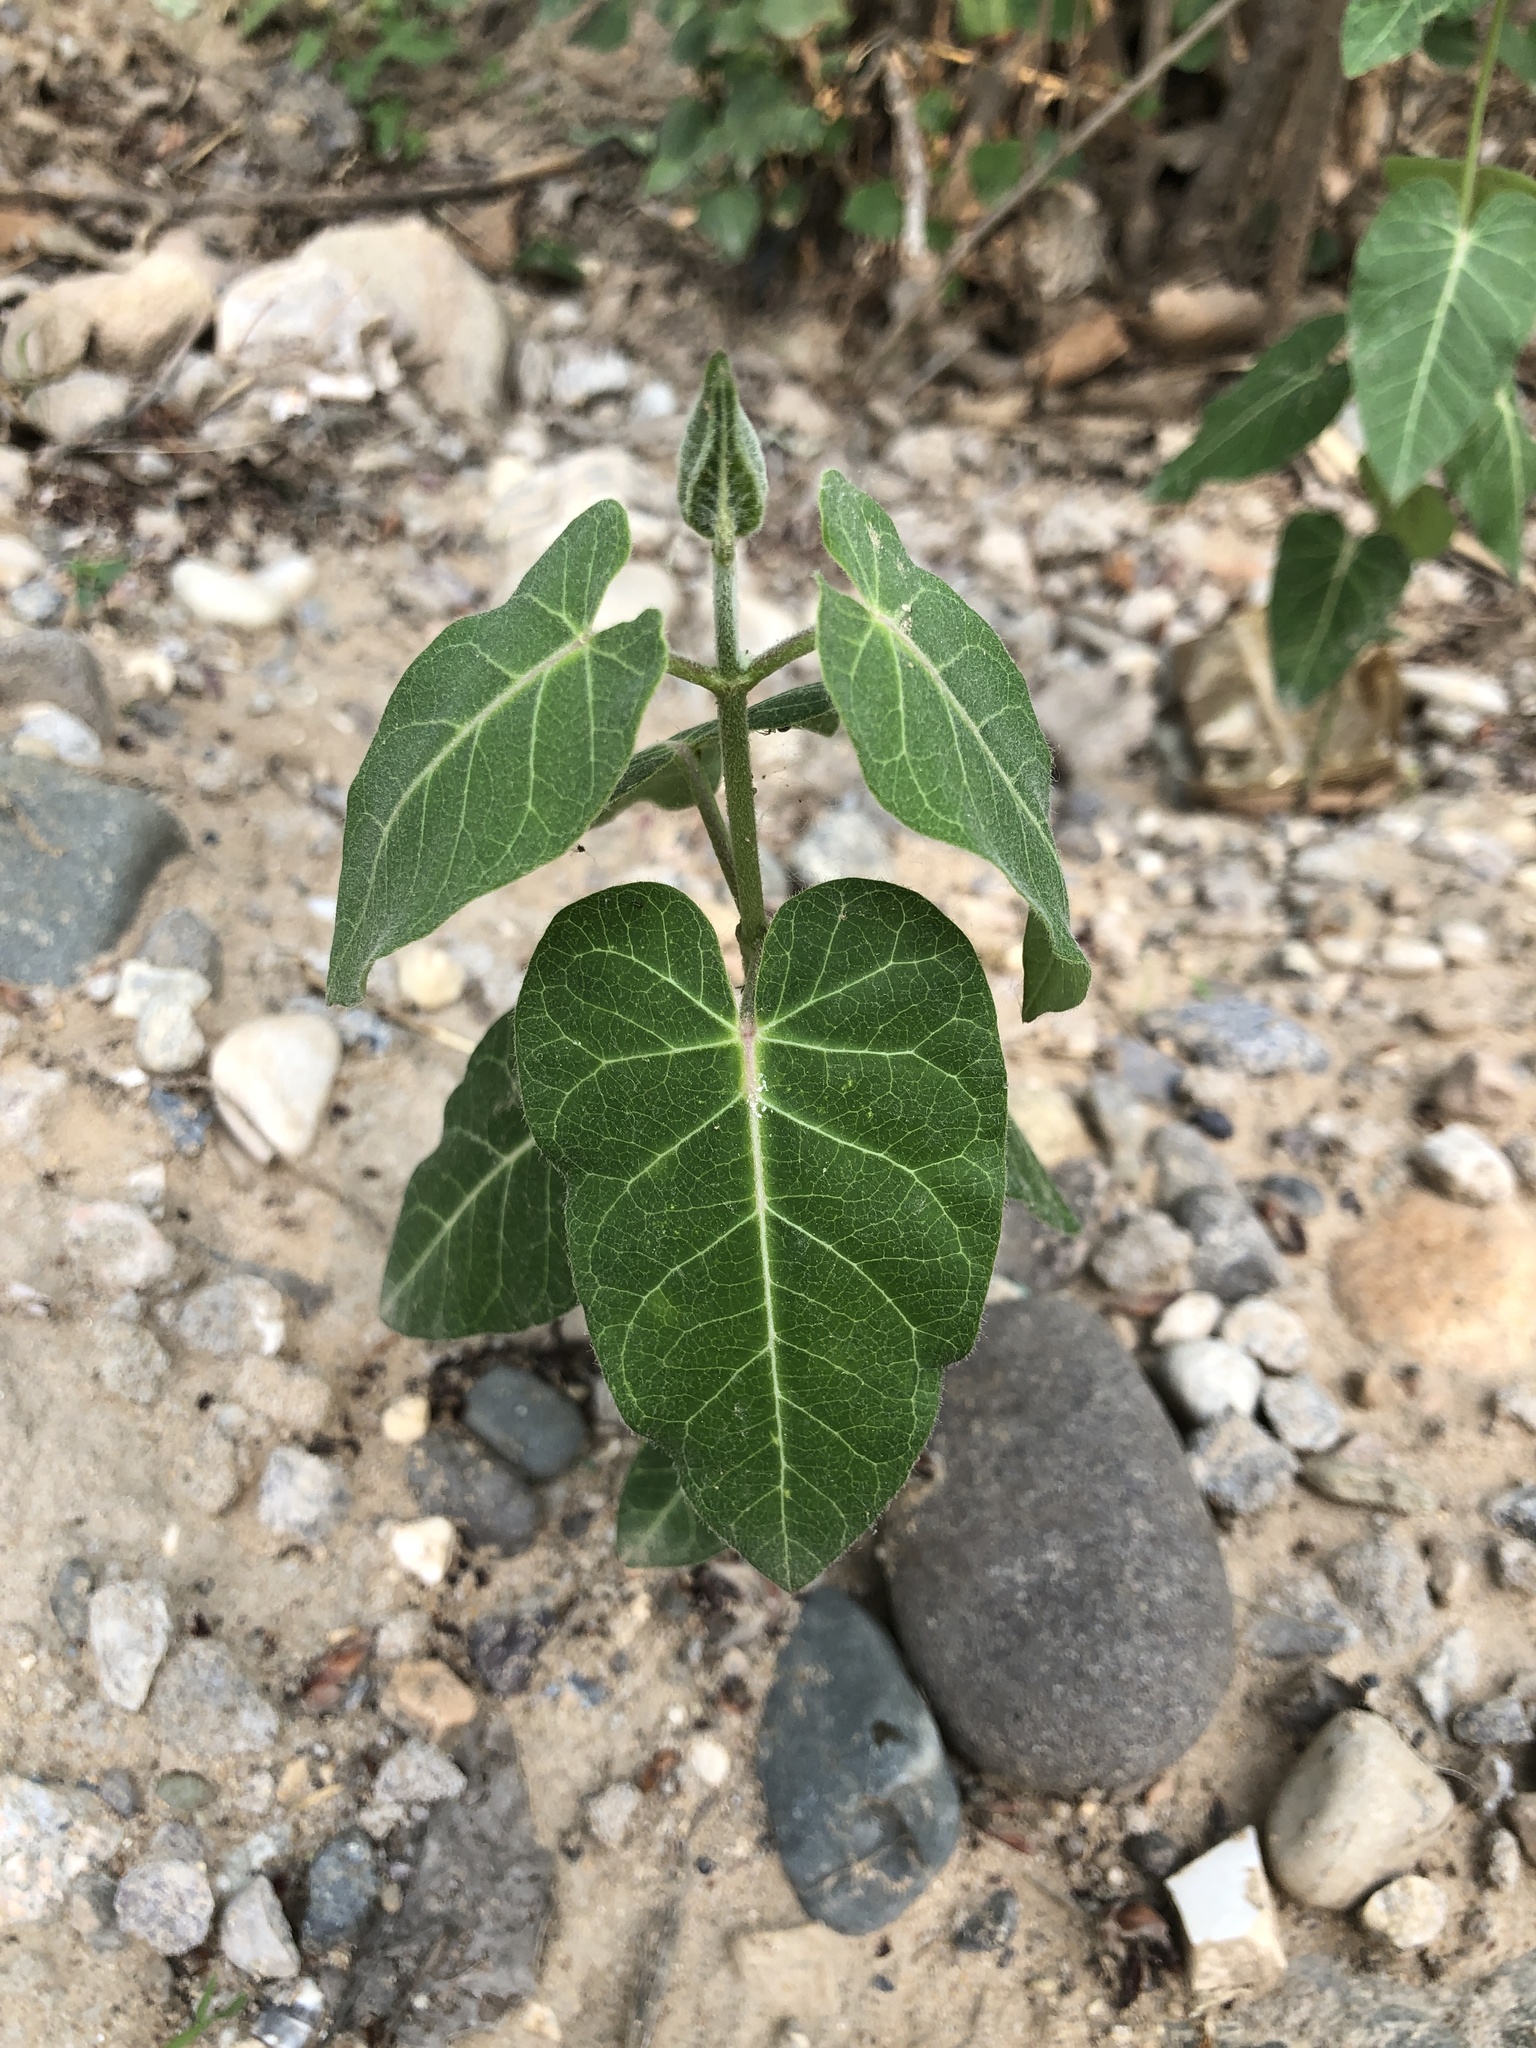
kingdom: Plantae
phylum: Tracheophyta
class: Magnoliopsida
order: Gentianales
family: Apocynaceae
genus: Cynanchum
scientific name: Cynanchum rostellatum
